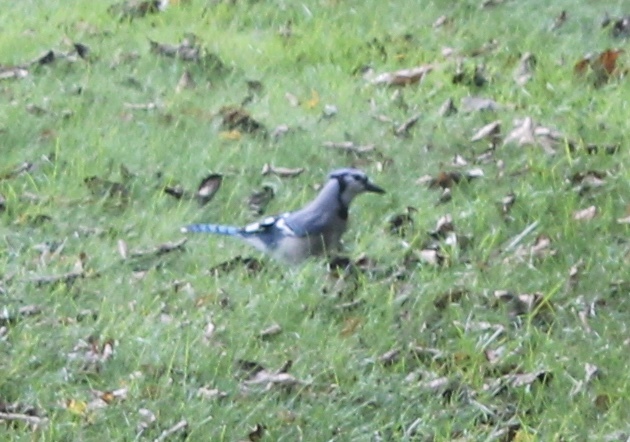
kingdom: Animalia
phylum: Chordata
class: Aves
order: Passeriformes
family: Corvidae
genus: Cyanocitta
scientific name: Cyanocitta cristata
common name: Blue jay
